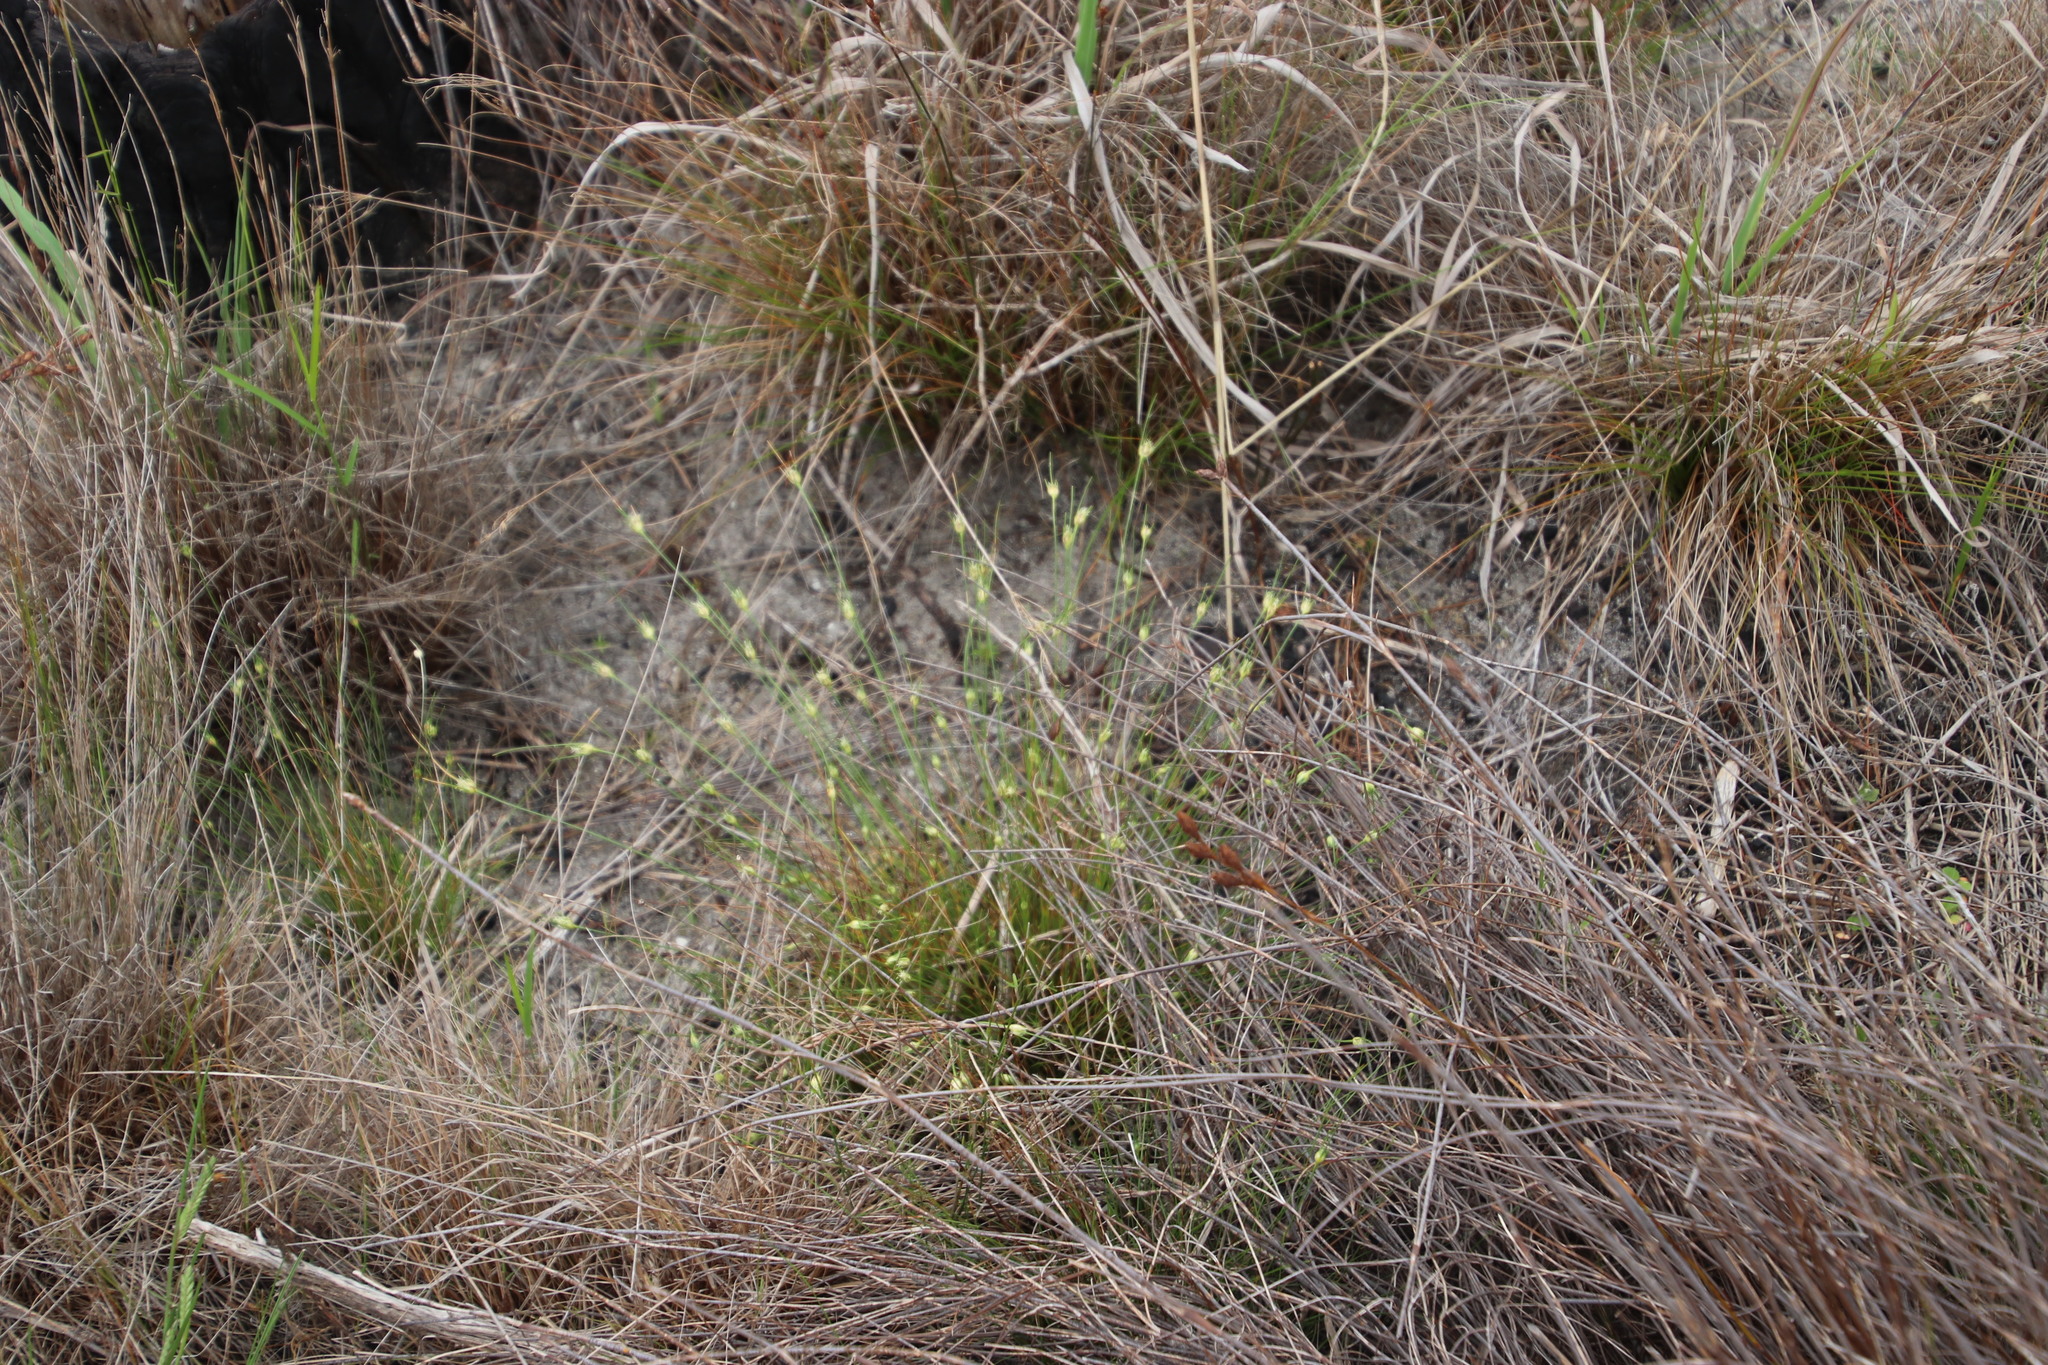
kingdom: Plantae
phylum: Tracheophyta
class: Liliopsida
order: Poales
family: Cyperaceae
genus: Ficinia
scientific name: Ficinia capitella
